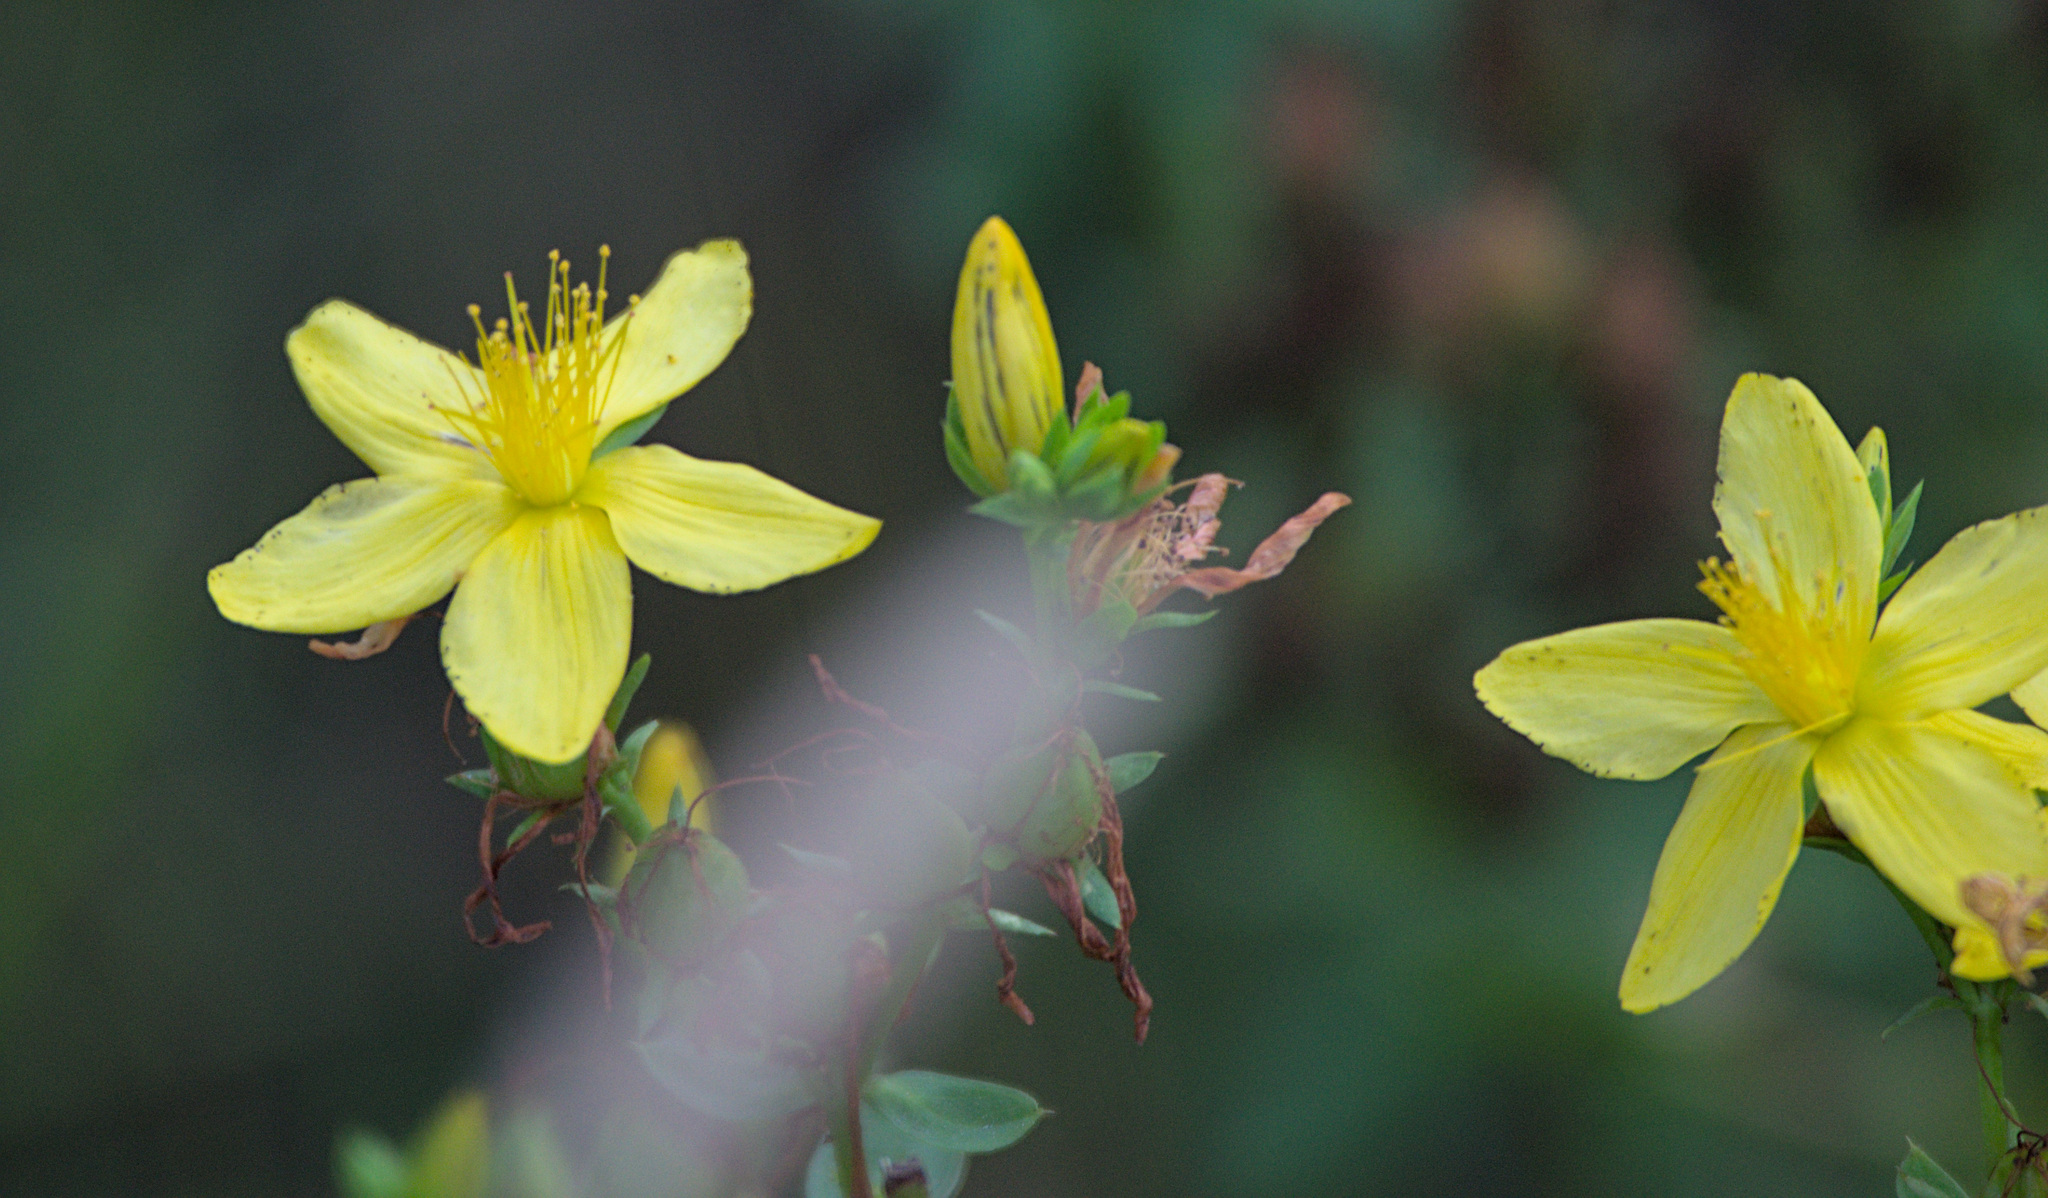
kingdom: Plantae
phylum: Tracheophyta
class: Magnoliopsida
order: Malpighiales
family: Hypericaceae
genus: Hypericum
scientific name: Hypericum perforatum
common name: Common st. johnswort
